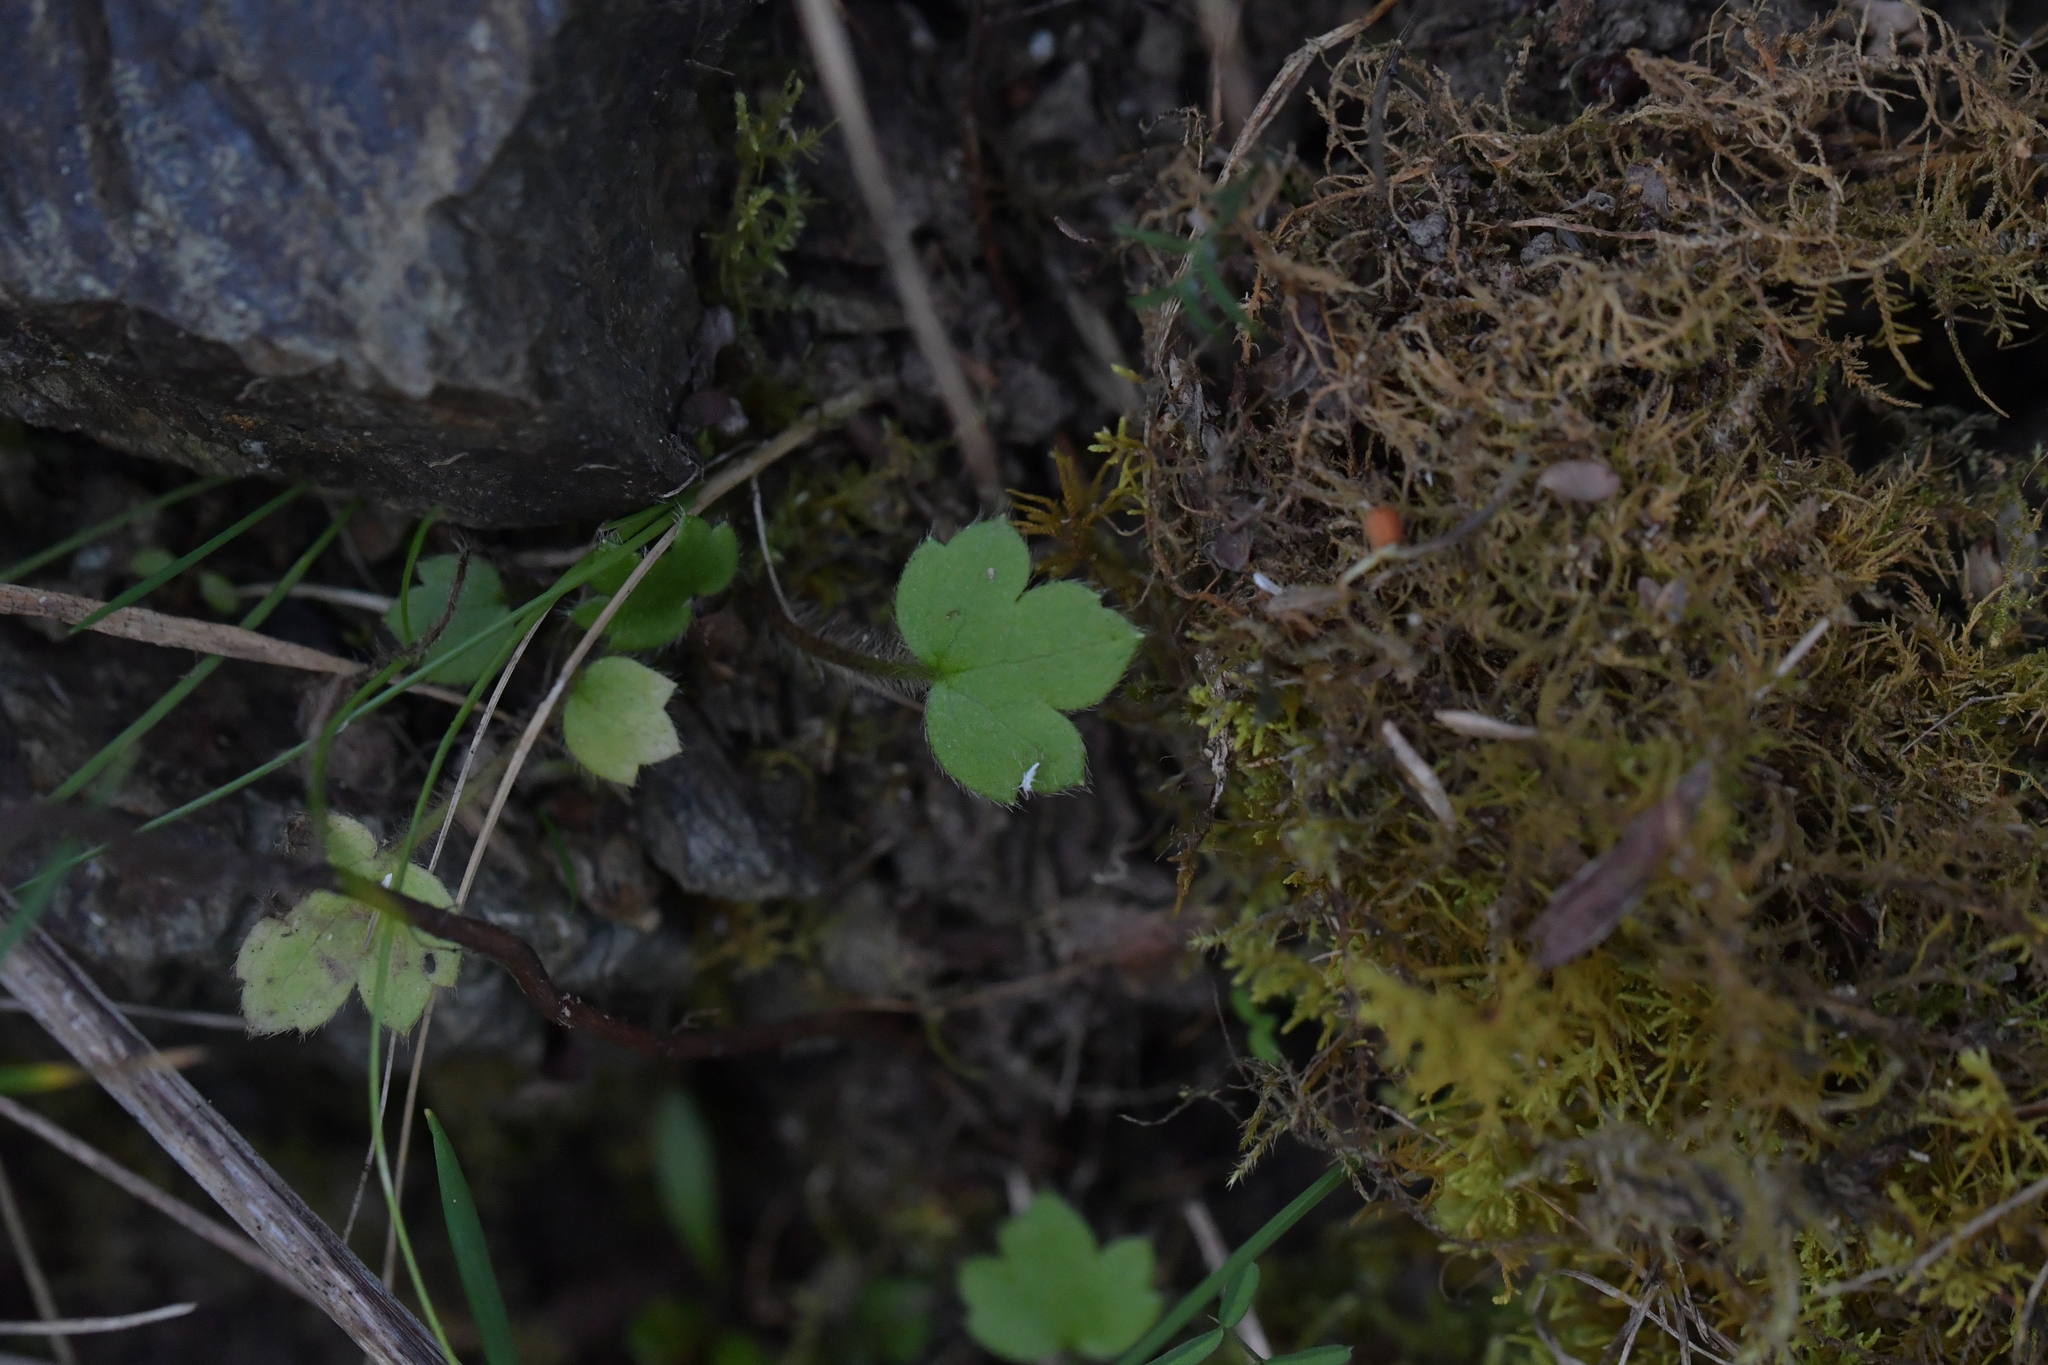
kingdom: Plantae
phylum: Tracheophyta
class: Magnoliopsida
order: Ranunculales
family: Ranunculaceae
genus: Ranunculus
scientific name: Ranunculus reflexus
